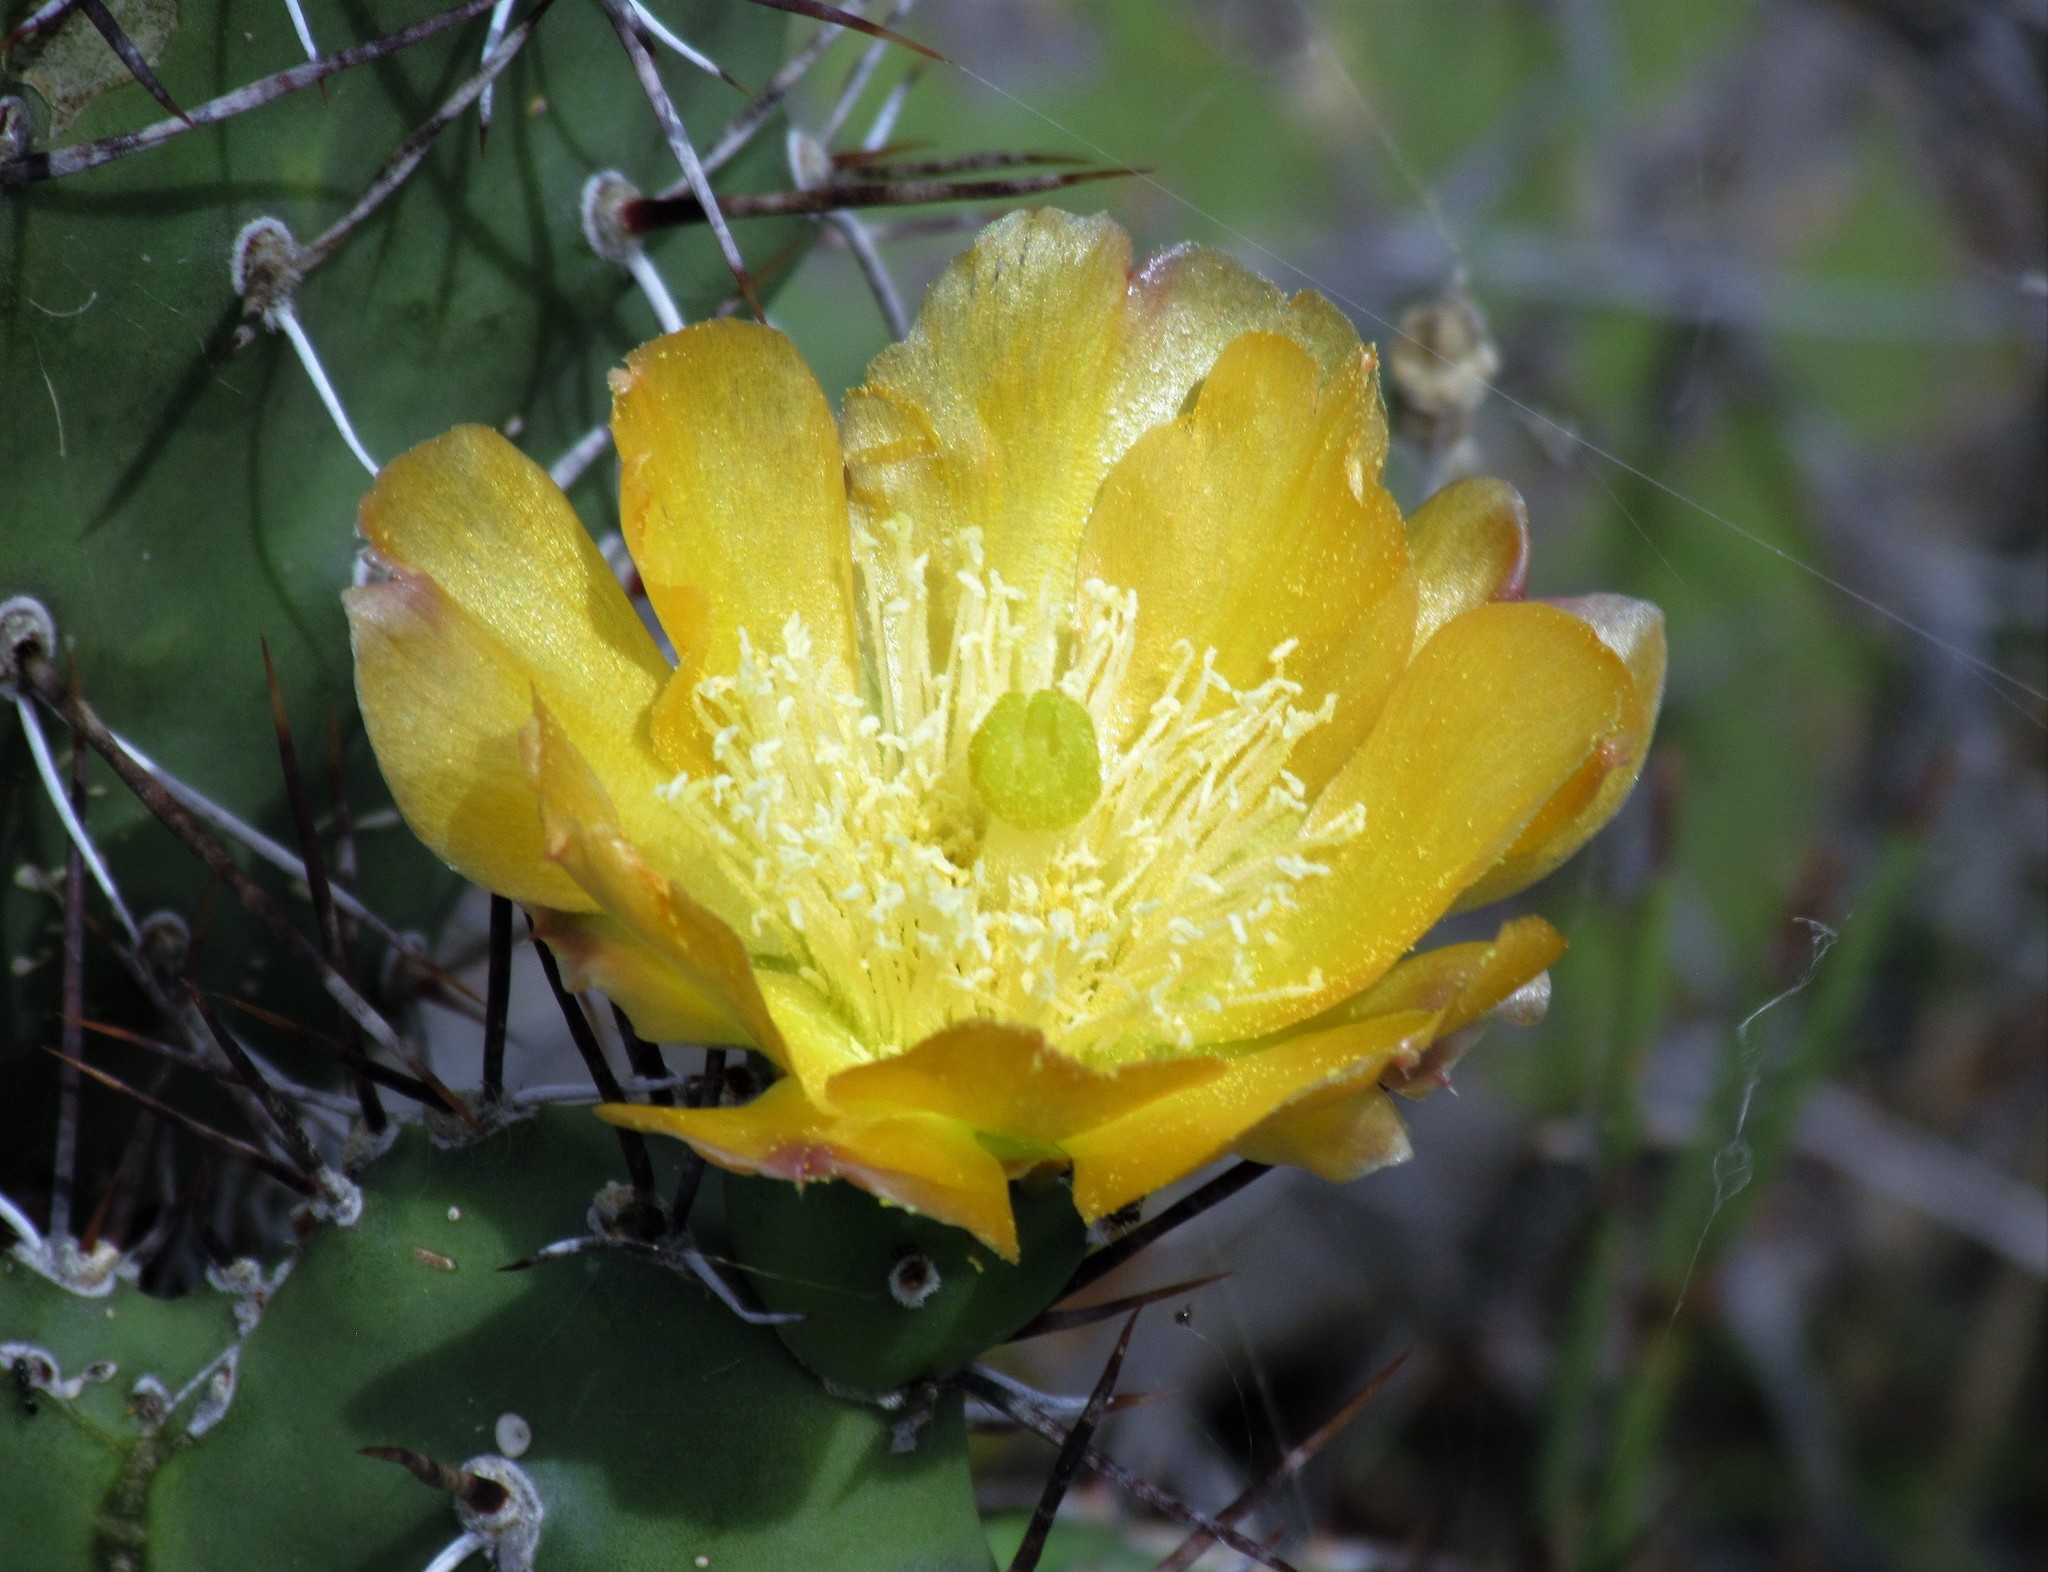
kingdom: Plantae
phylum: Tracheophyta
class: Magnoliopsida
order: Caryophyllales
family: Cactaceae
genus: Opuntia
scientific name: Opuntia sulphurea
